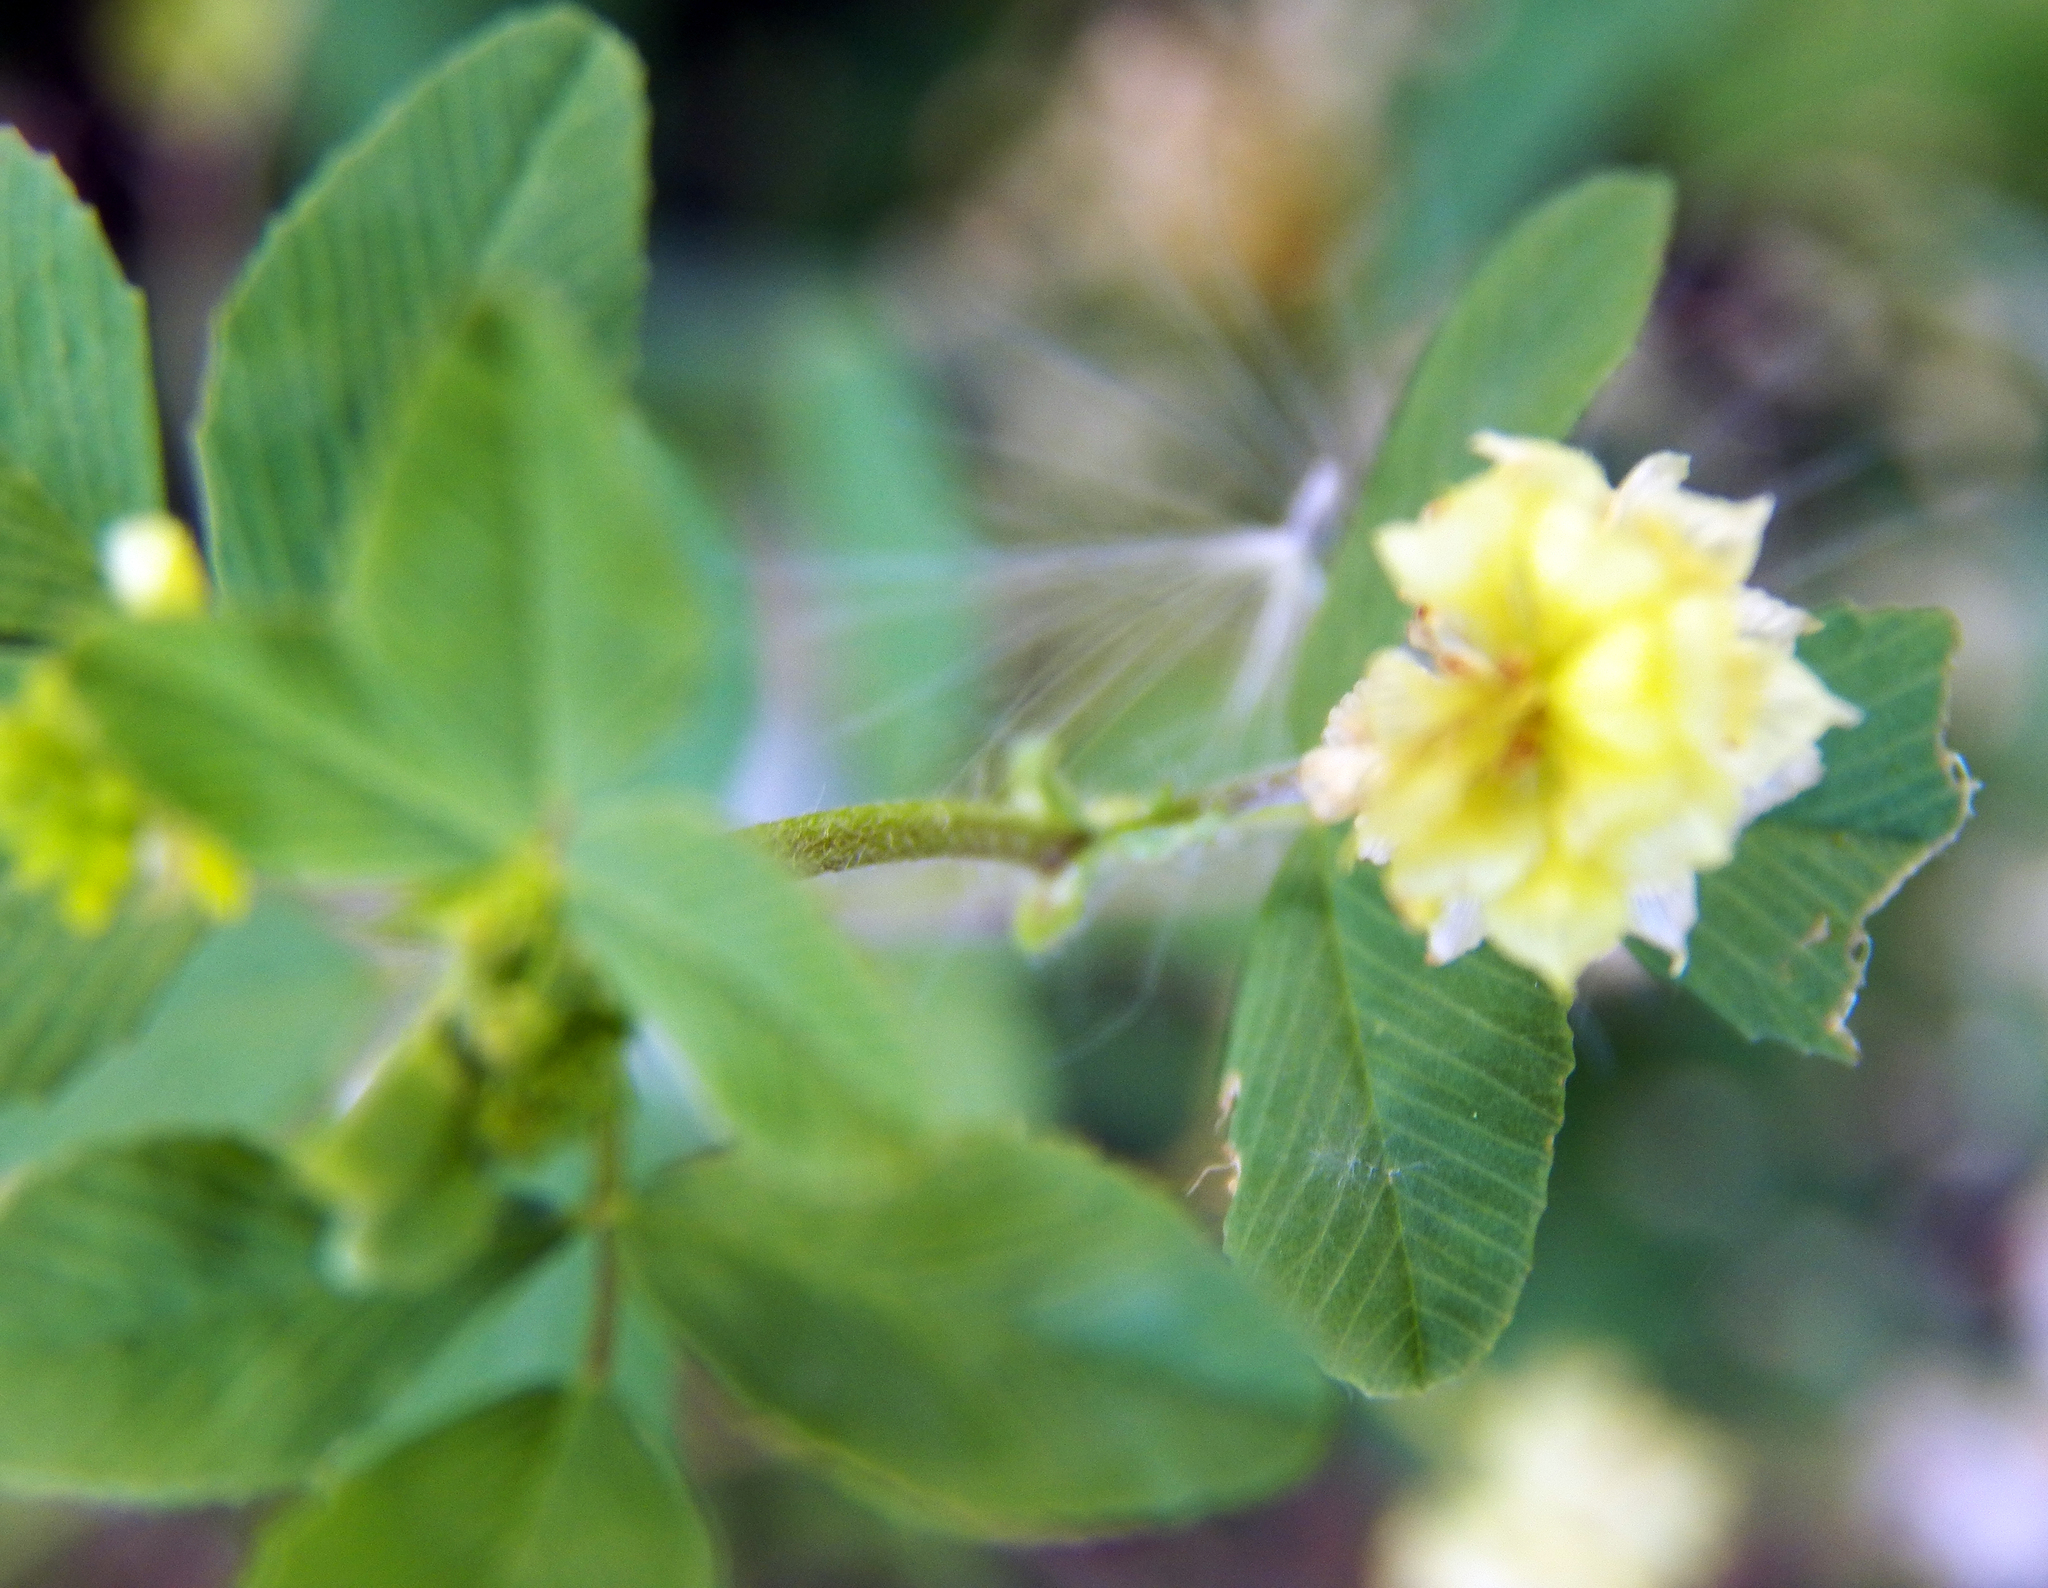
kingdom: Plantae
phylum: Tracheophyta
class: Magnoliopsida
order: Fabales
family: Fabaceae
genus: Trifolium
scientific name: Trifolium campestre
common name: Field clover
